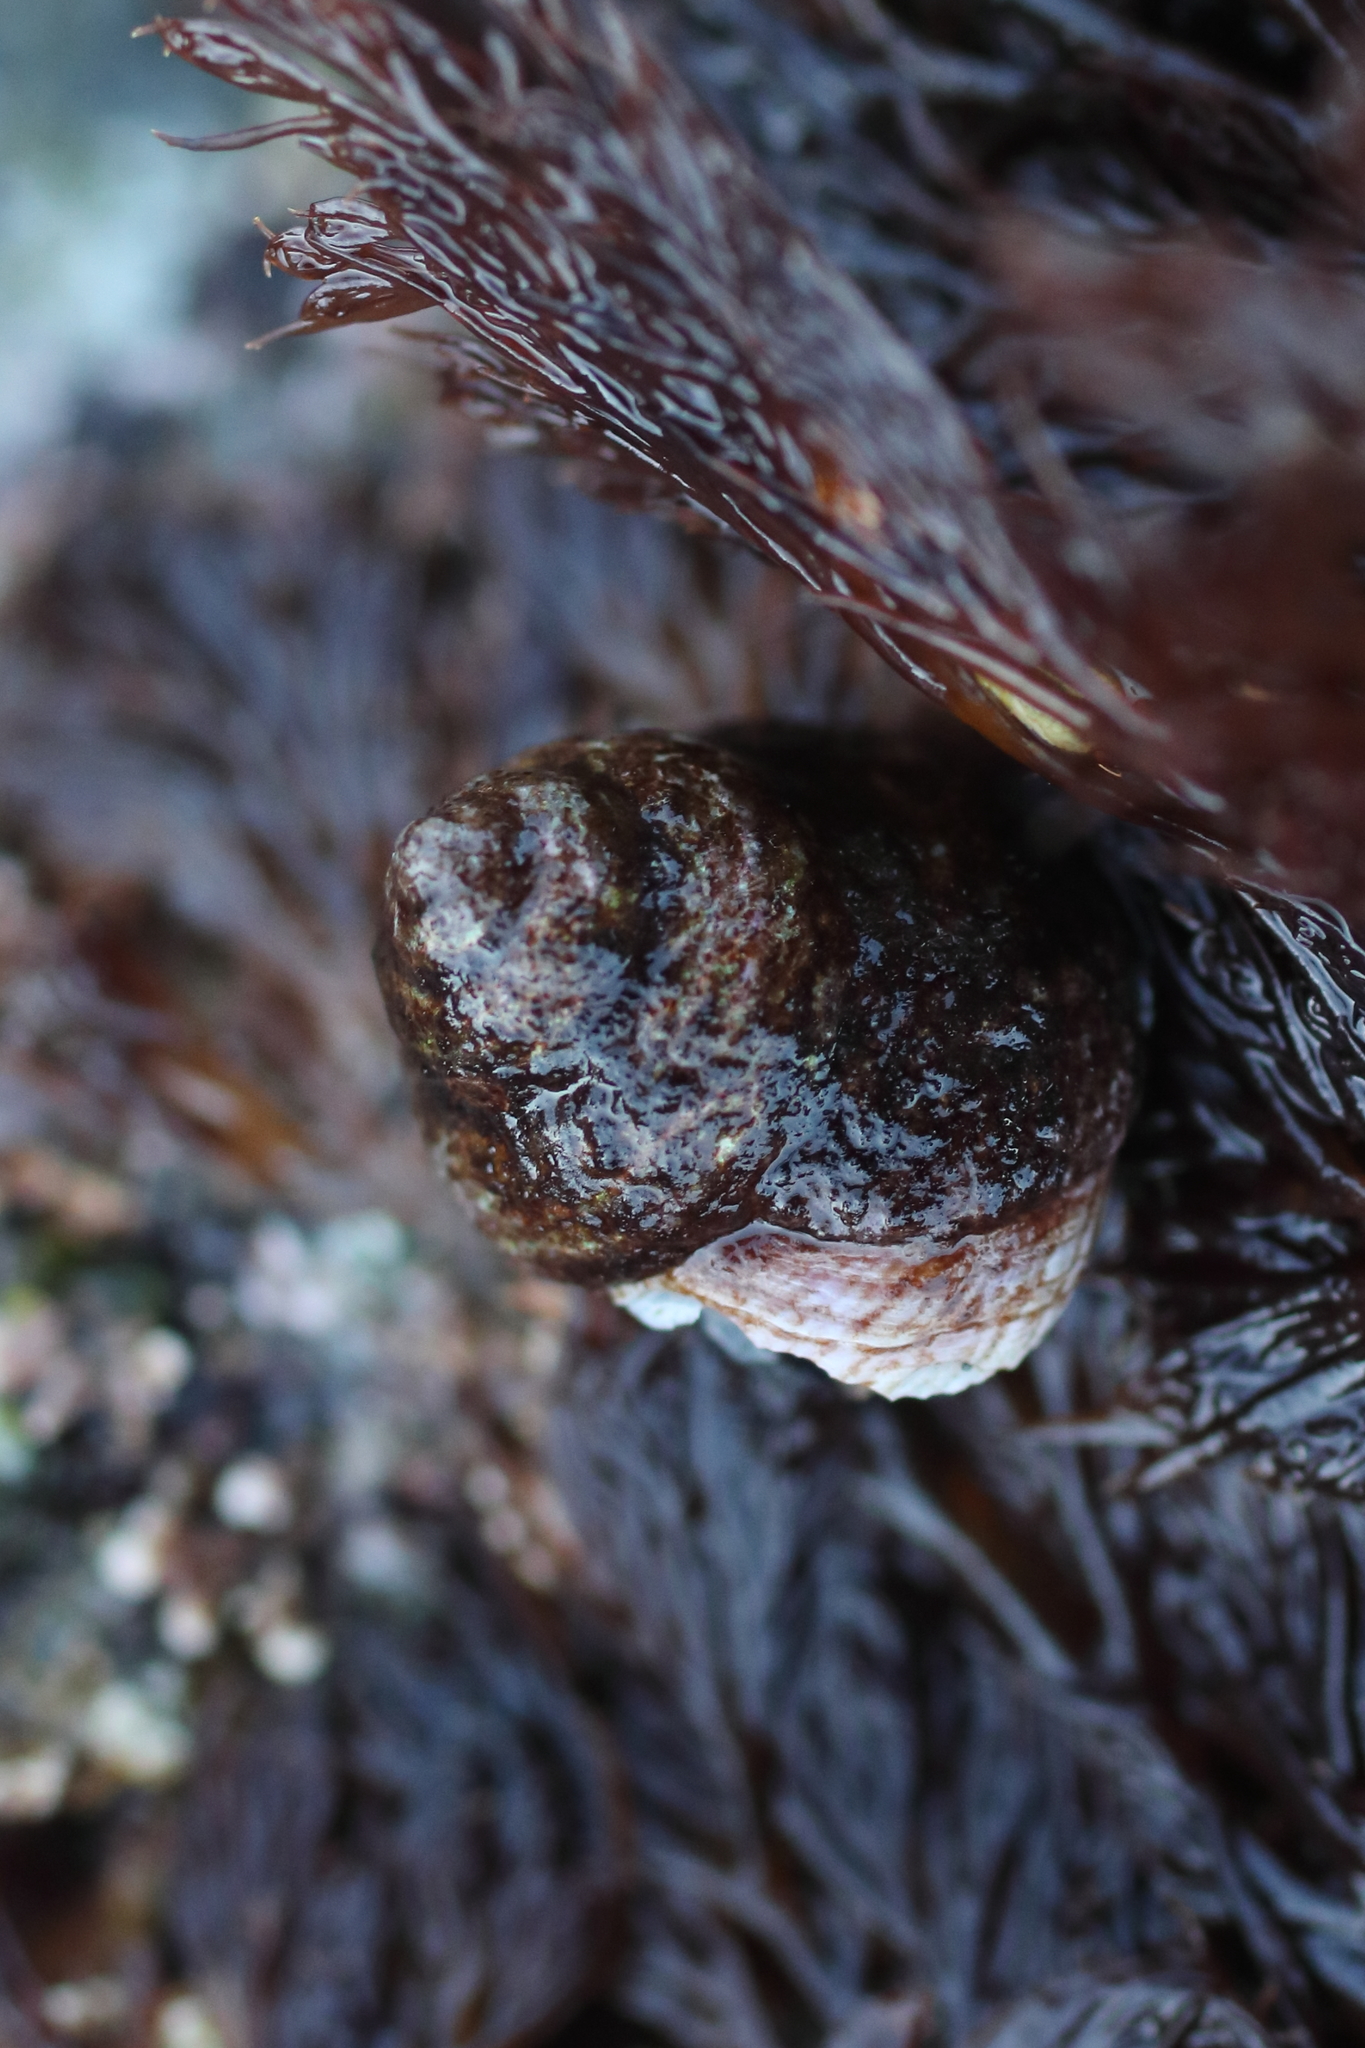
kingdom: Animalia
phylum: Mollusca
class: Gastropoda
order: Trochida
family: Margaritidae
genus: Margarites
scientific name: Margarites pupillus
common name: Puppet margarite
